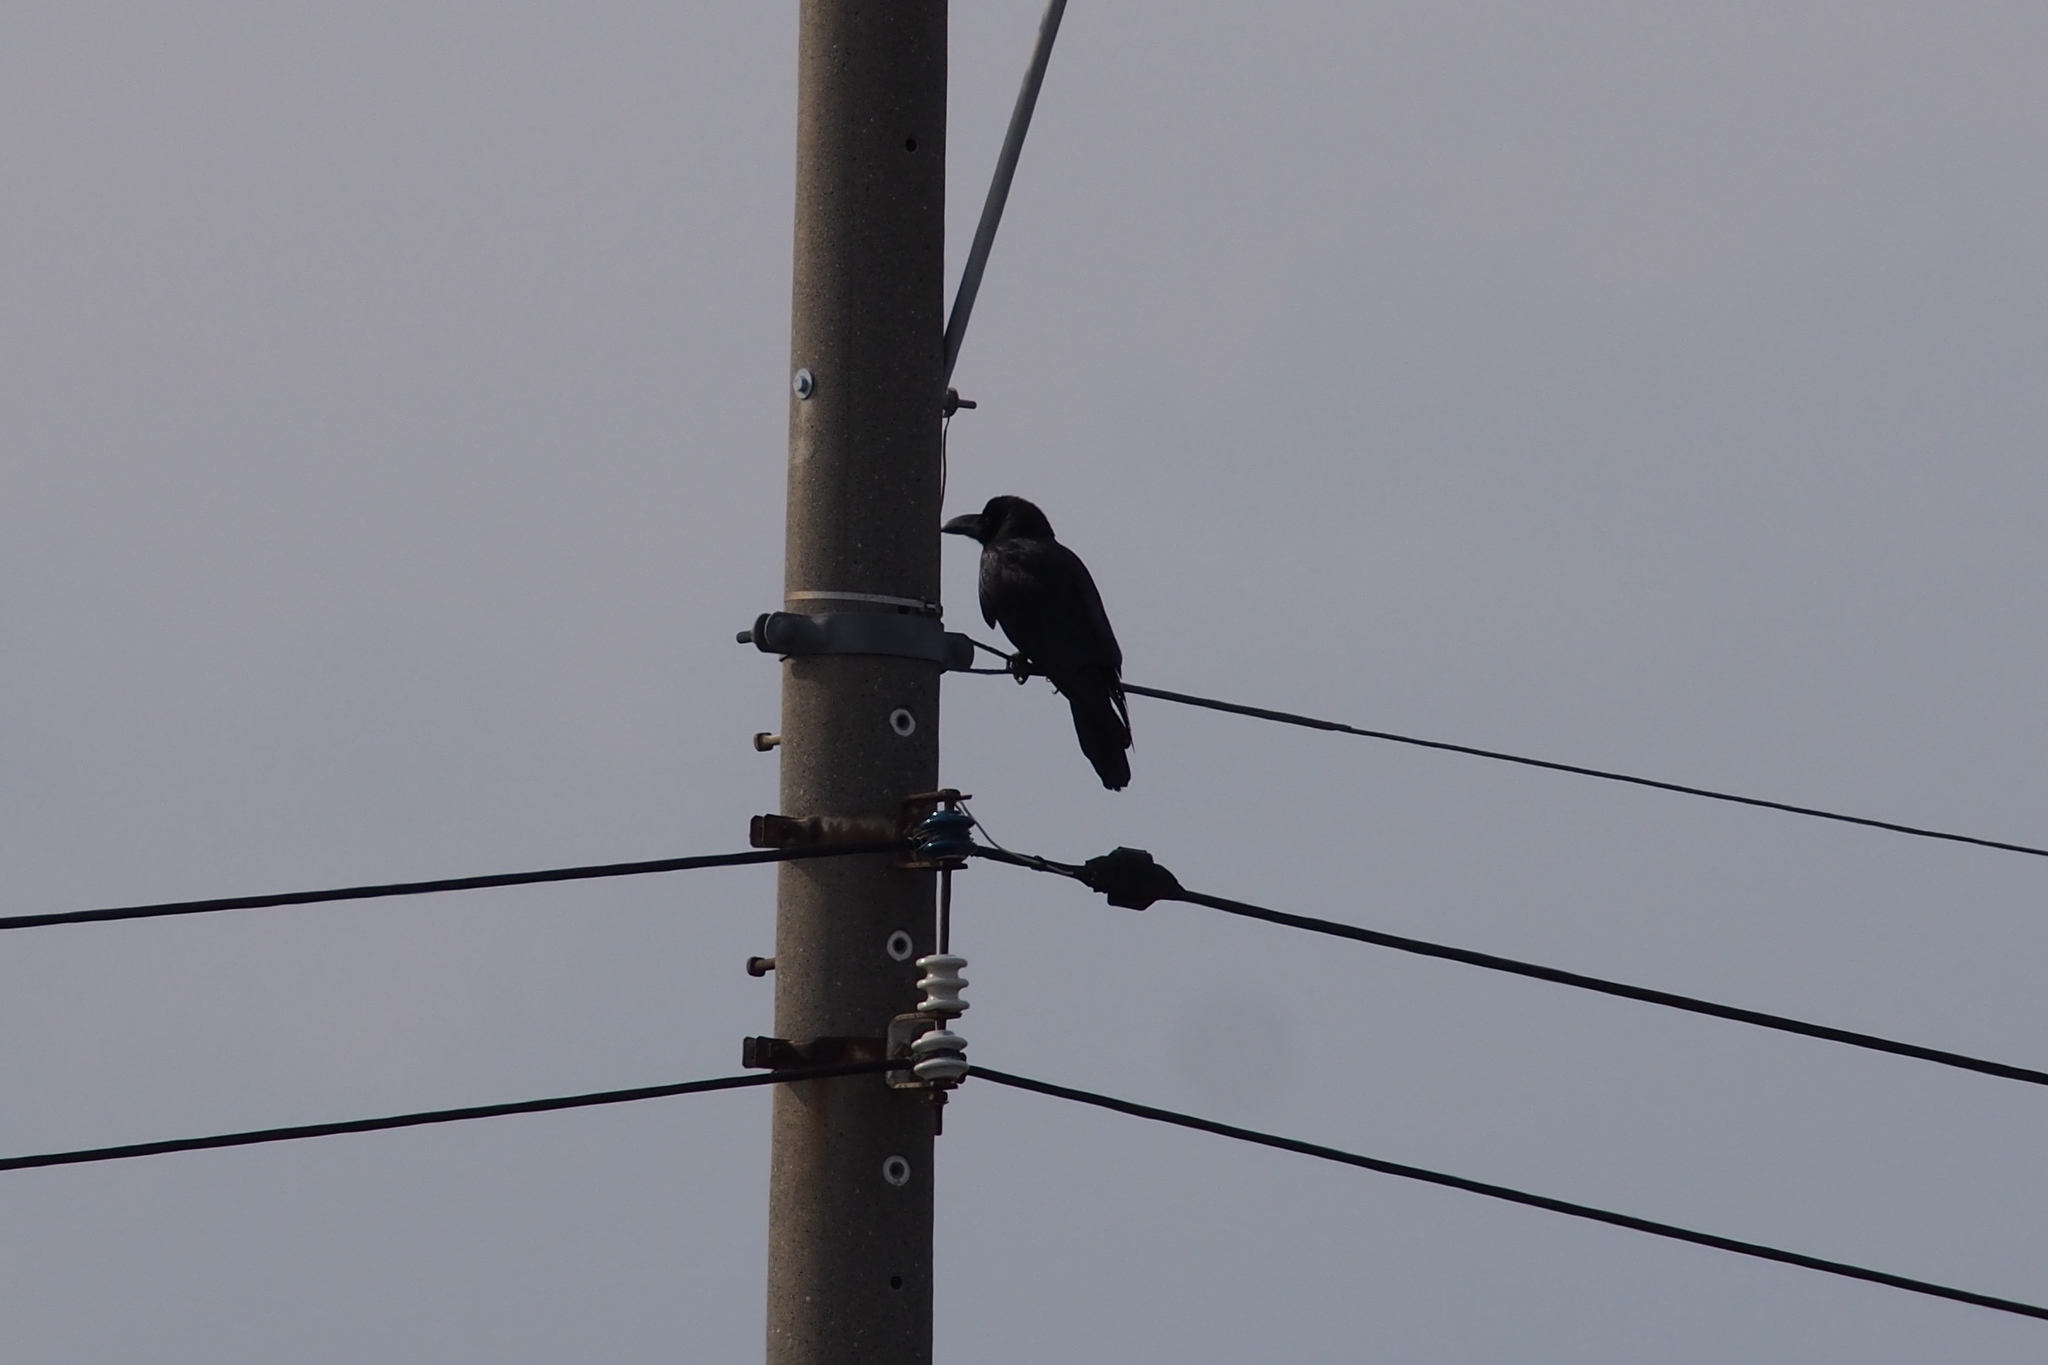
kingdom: Animalia
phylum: Chordata
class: Aves
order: Passeriformes
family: Corvidae
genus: Corvus
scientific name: Corvus macrorhynchos
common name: Large-billed crow
